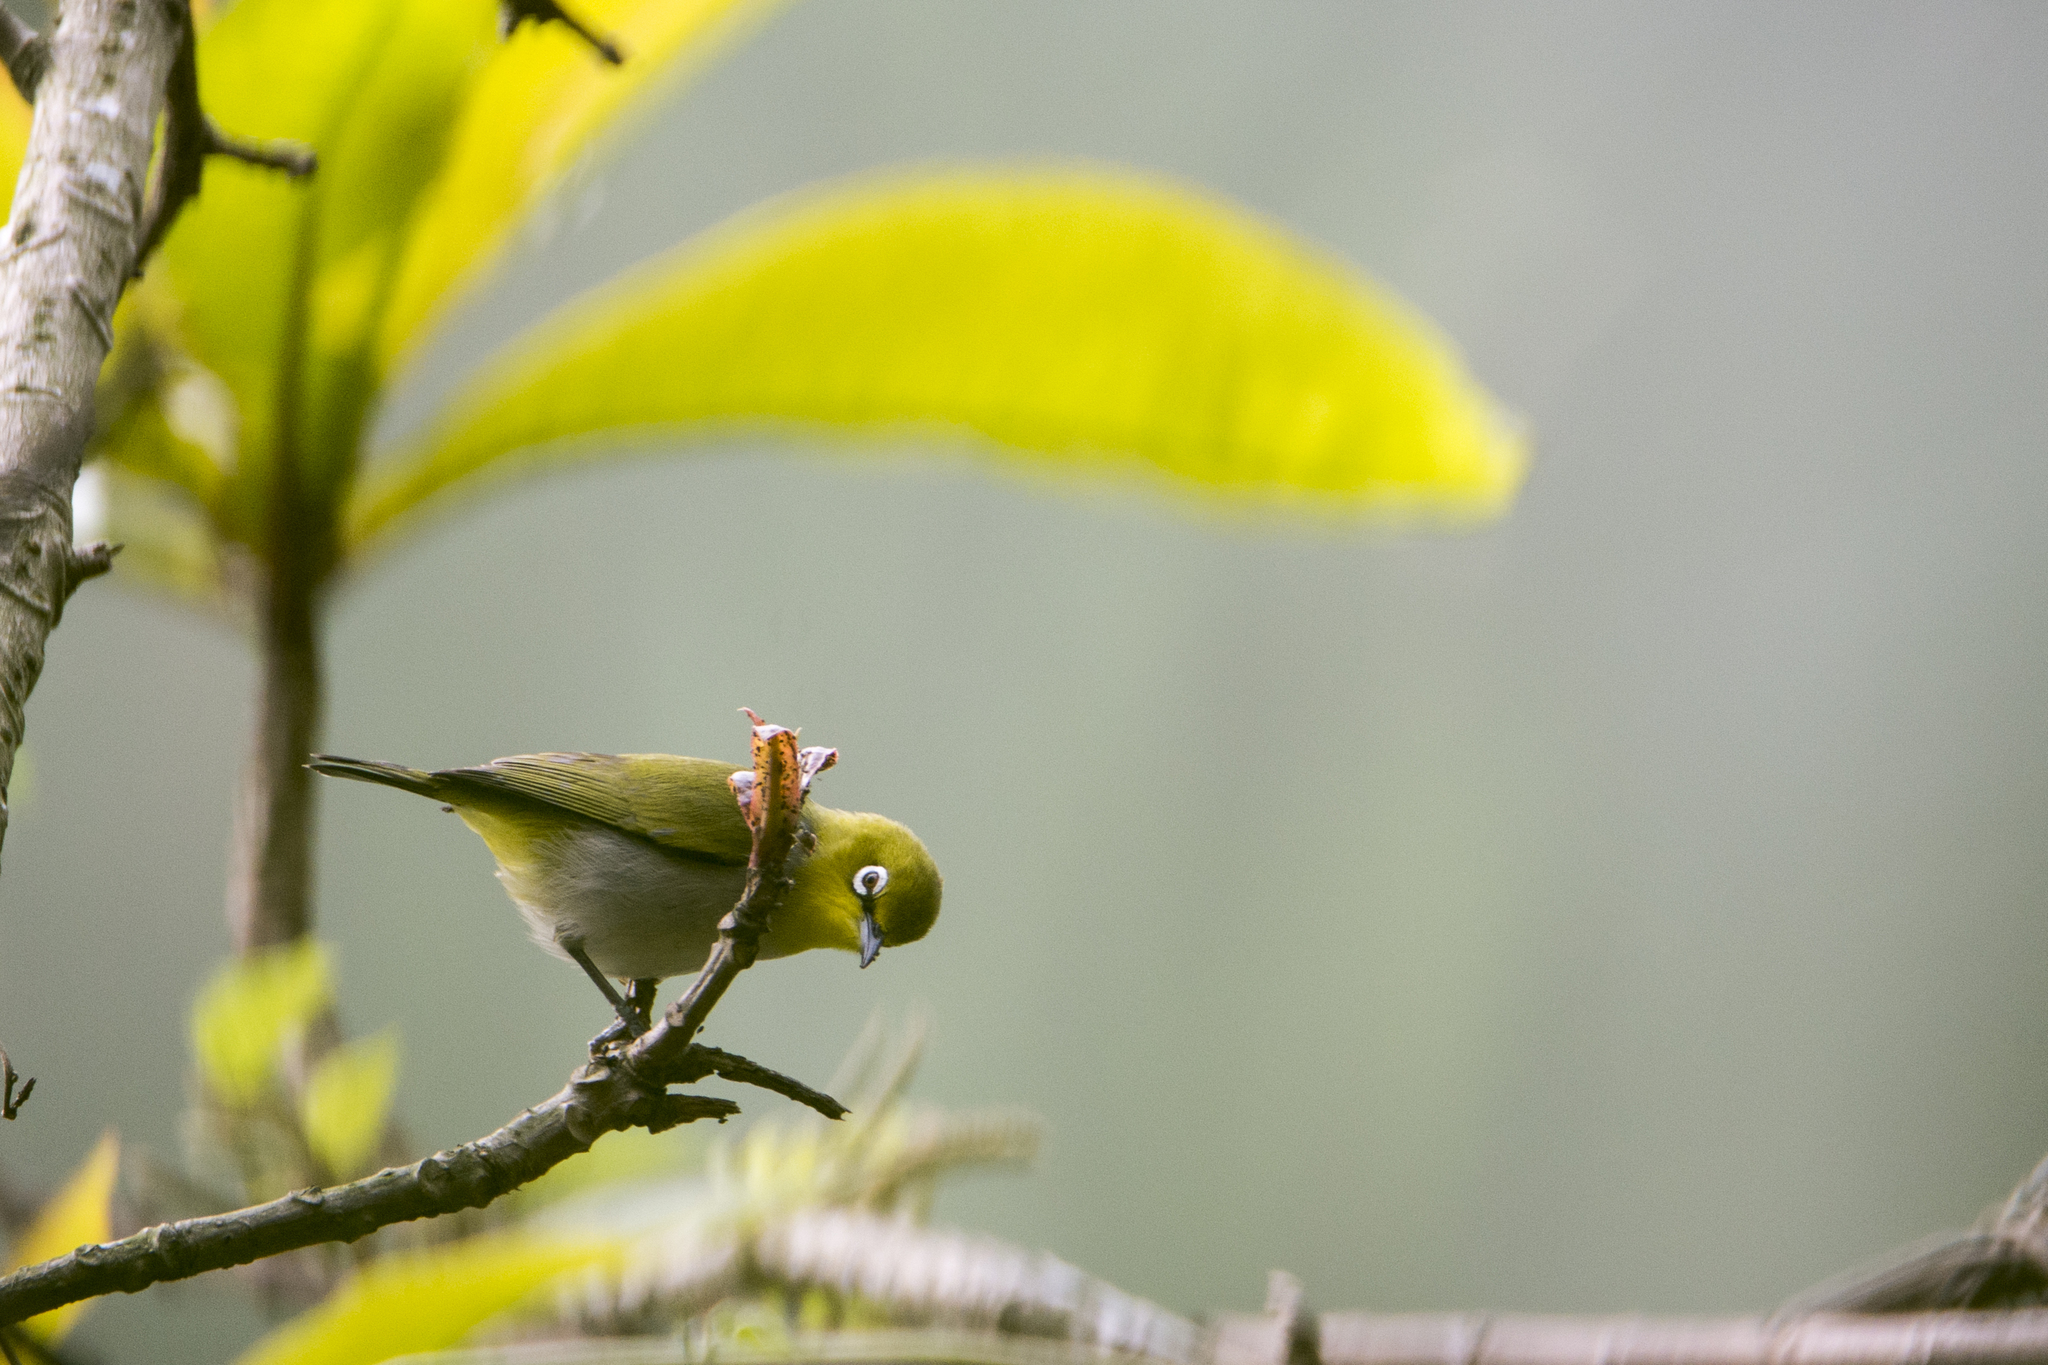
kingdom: Animalia
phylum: Chordata
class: Aves
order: Passeriformes
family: Zosteropidae
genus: Zosterops
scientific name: Zosterops simplex
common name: Swinhoe's white-eye
